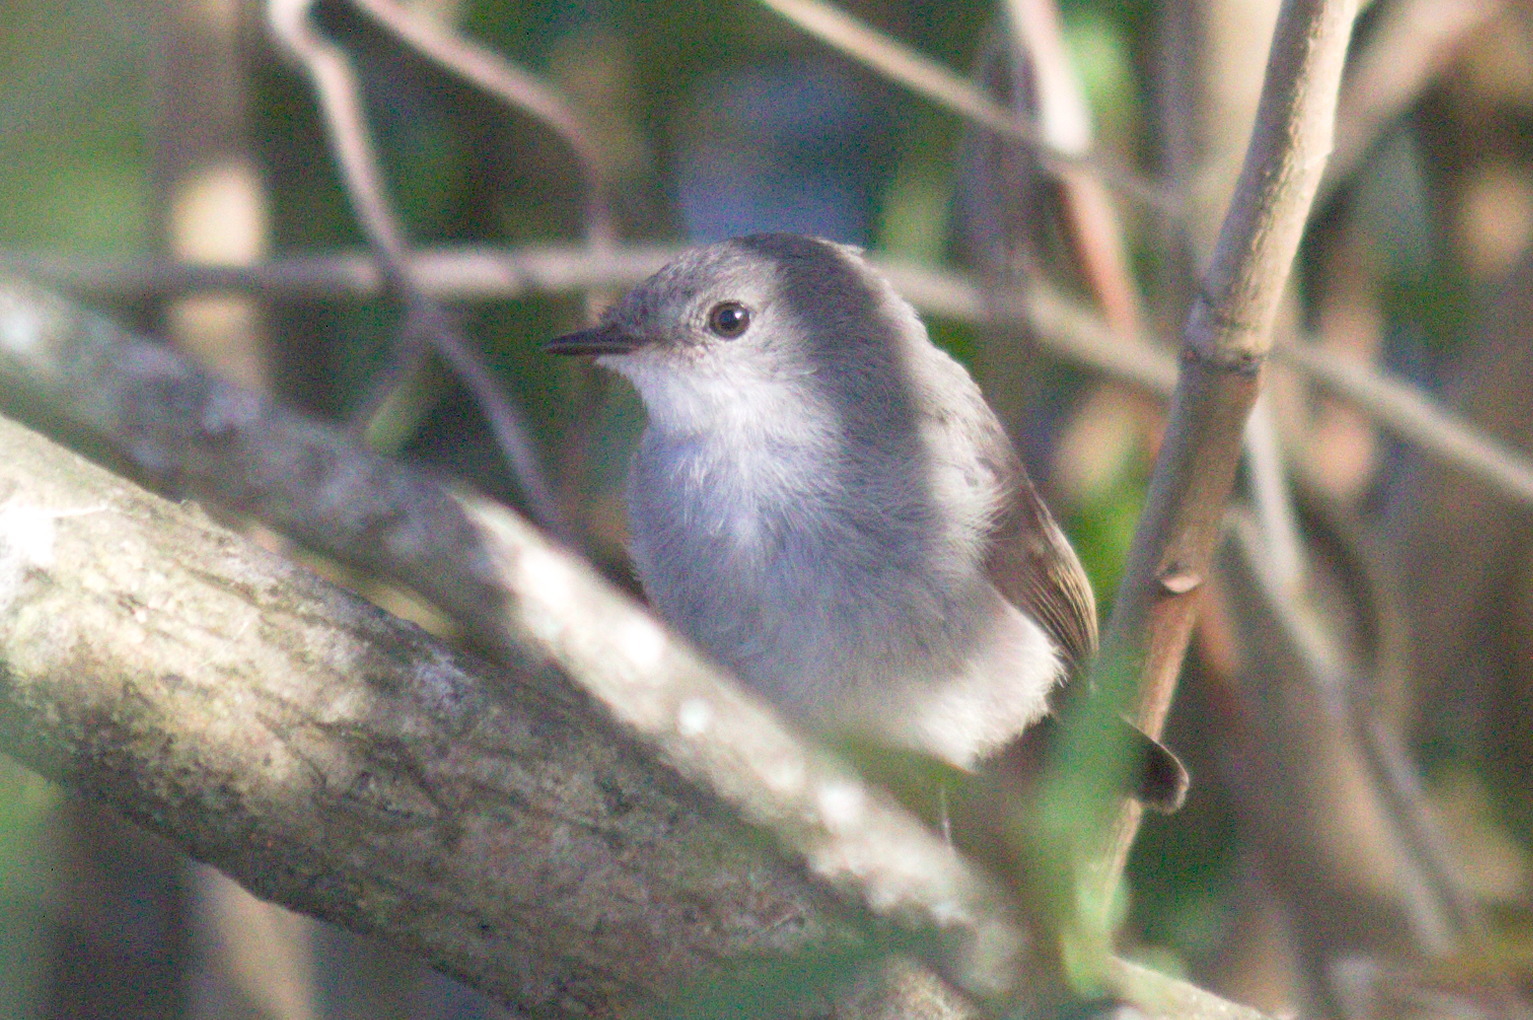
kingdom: Animalia
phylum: Chordata
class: Aves
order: Passeriformes
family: Tyrannidae
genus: Serpophaga
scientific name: Serpophaga nigricans
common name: Sooty tyrannulet
